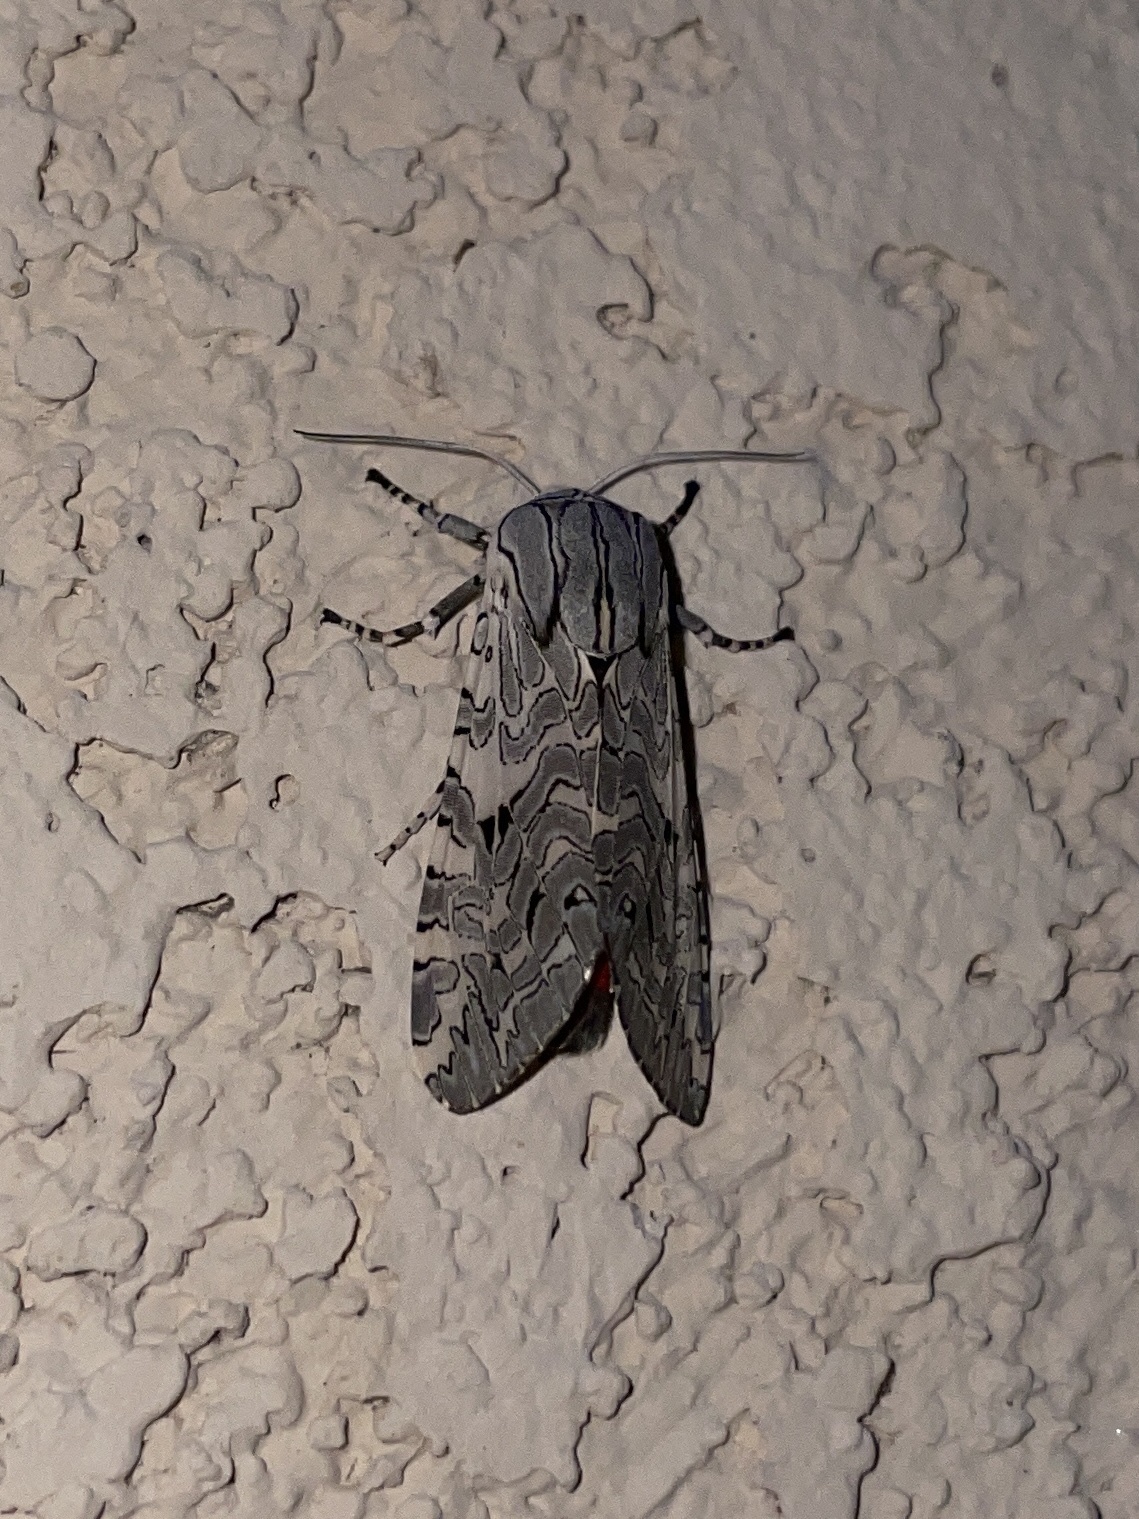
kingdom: Animalia
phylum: Arthropoda
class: Insecta
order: Lepidoptera
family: Erebidae
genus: Arachnis
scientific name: Arachnis picta
